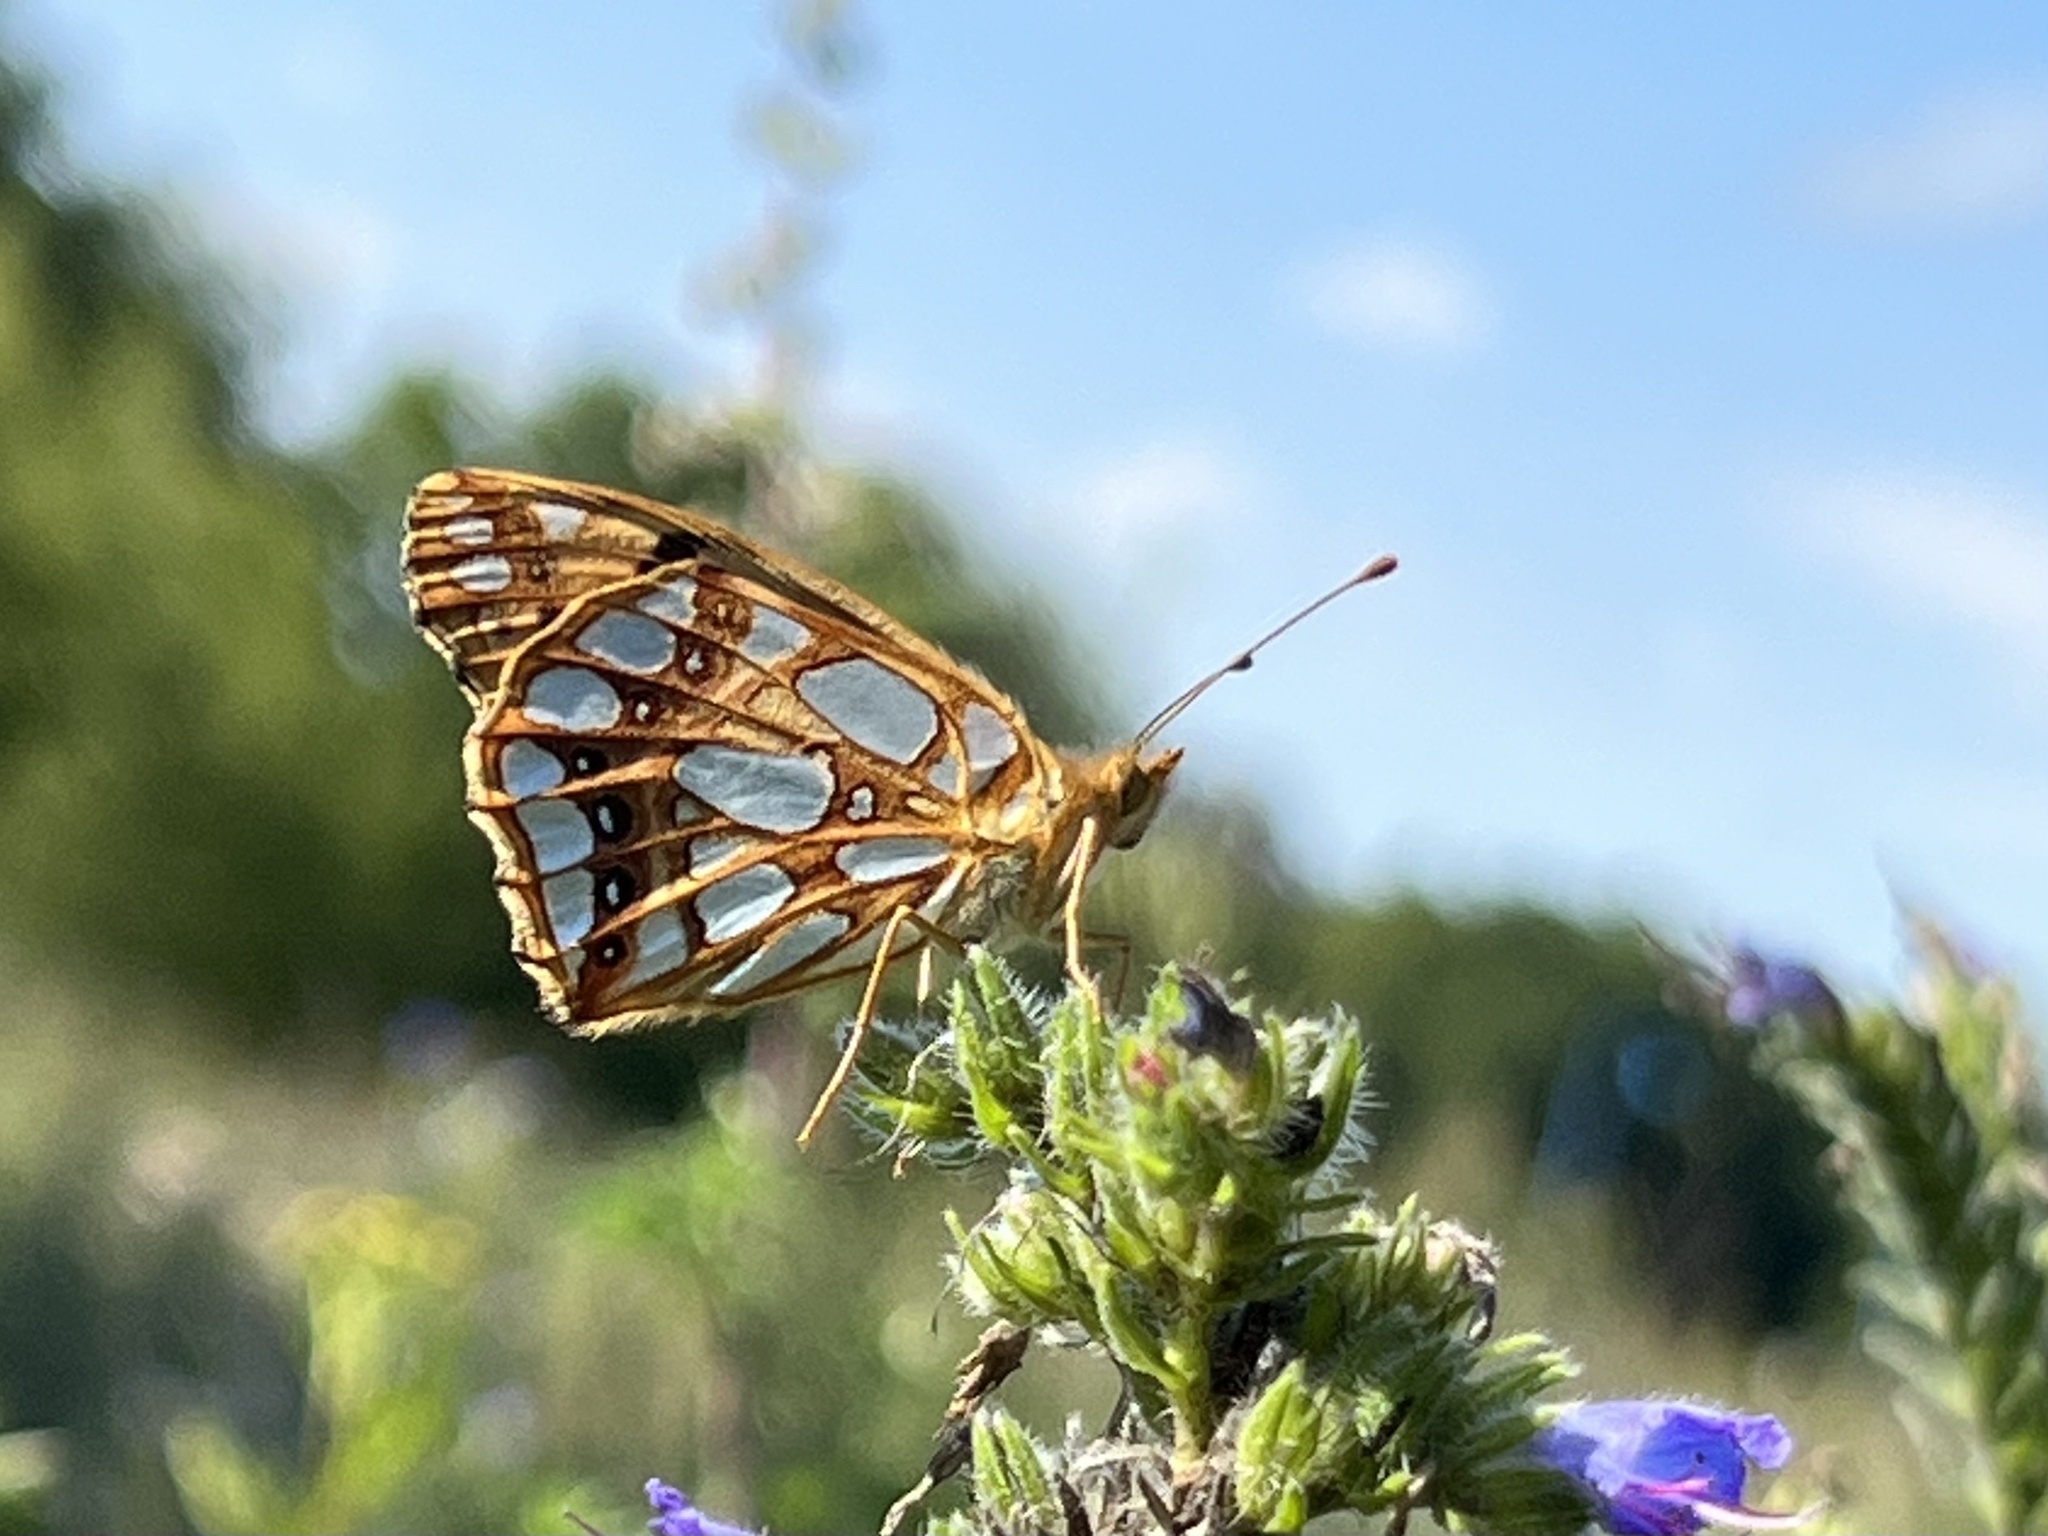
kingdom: Animalia
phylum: Arthropoda
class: Insecta
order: Lepidoptera
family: Nymphalidae
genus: Issoria
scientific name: Issoria lathonia
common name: Queen of spain fritillary
